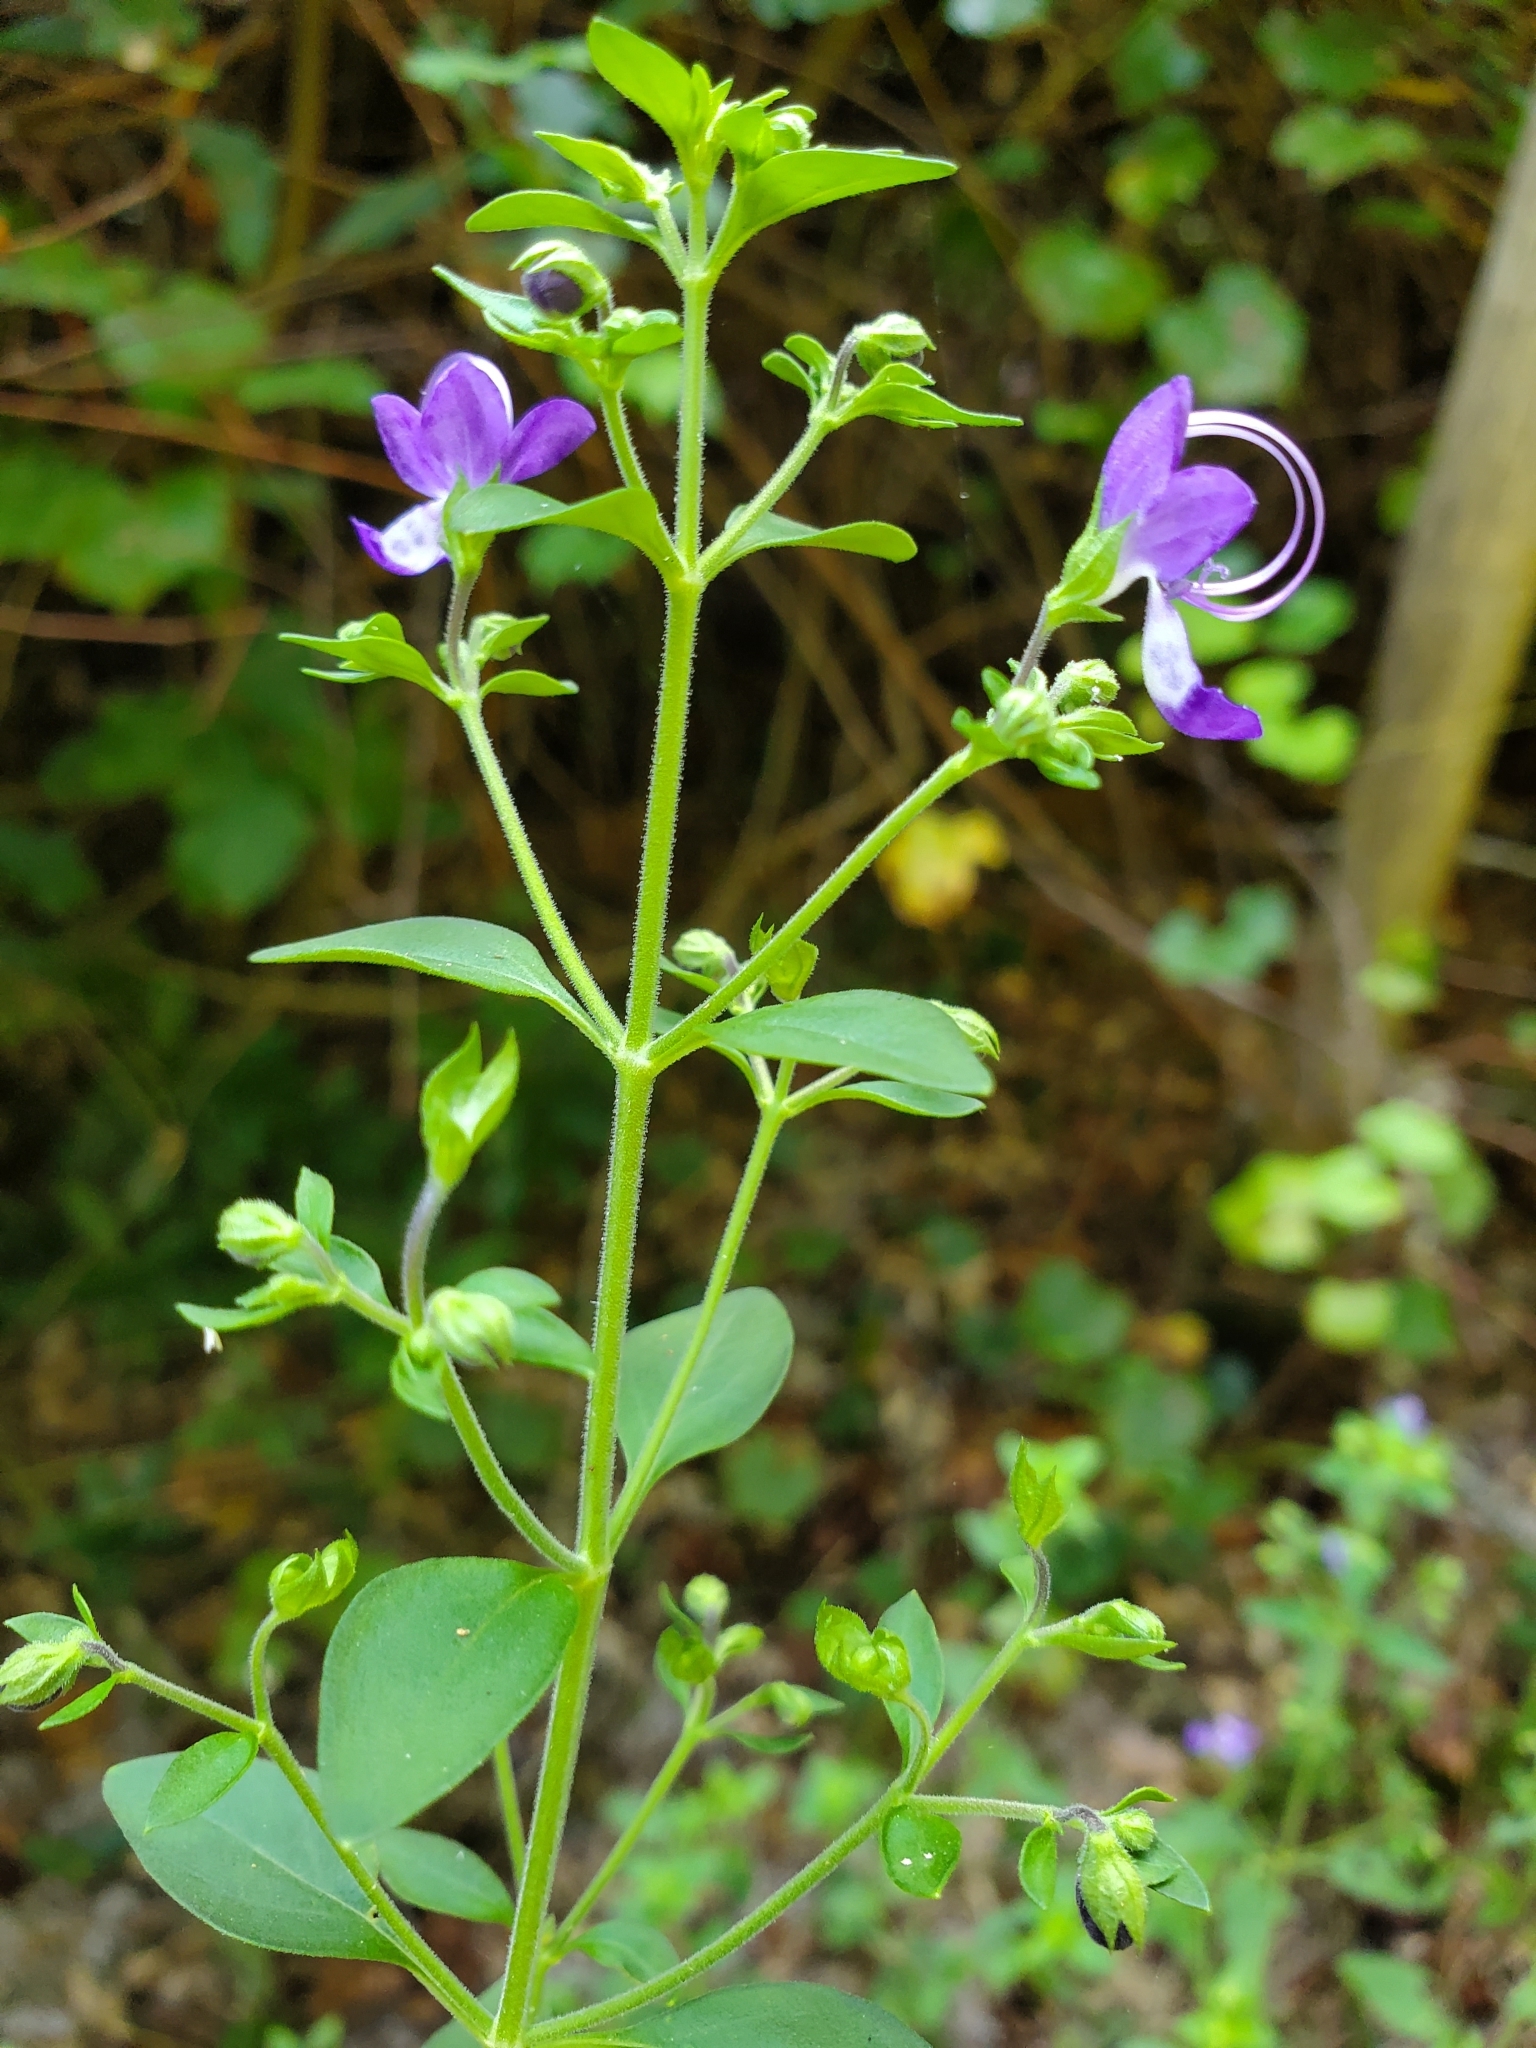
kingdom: Plantae
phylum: Tracheophyta
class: Magnoliopsida
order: Lamiales
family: Lamiaceae
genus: Trichostema
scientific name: Trichostema fruticosum
